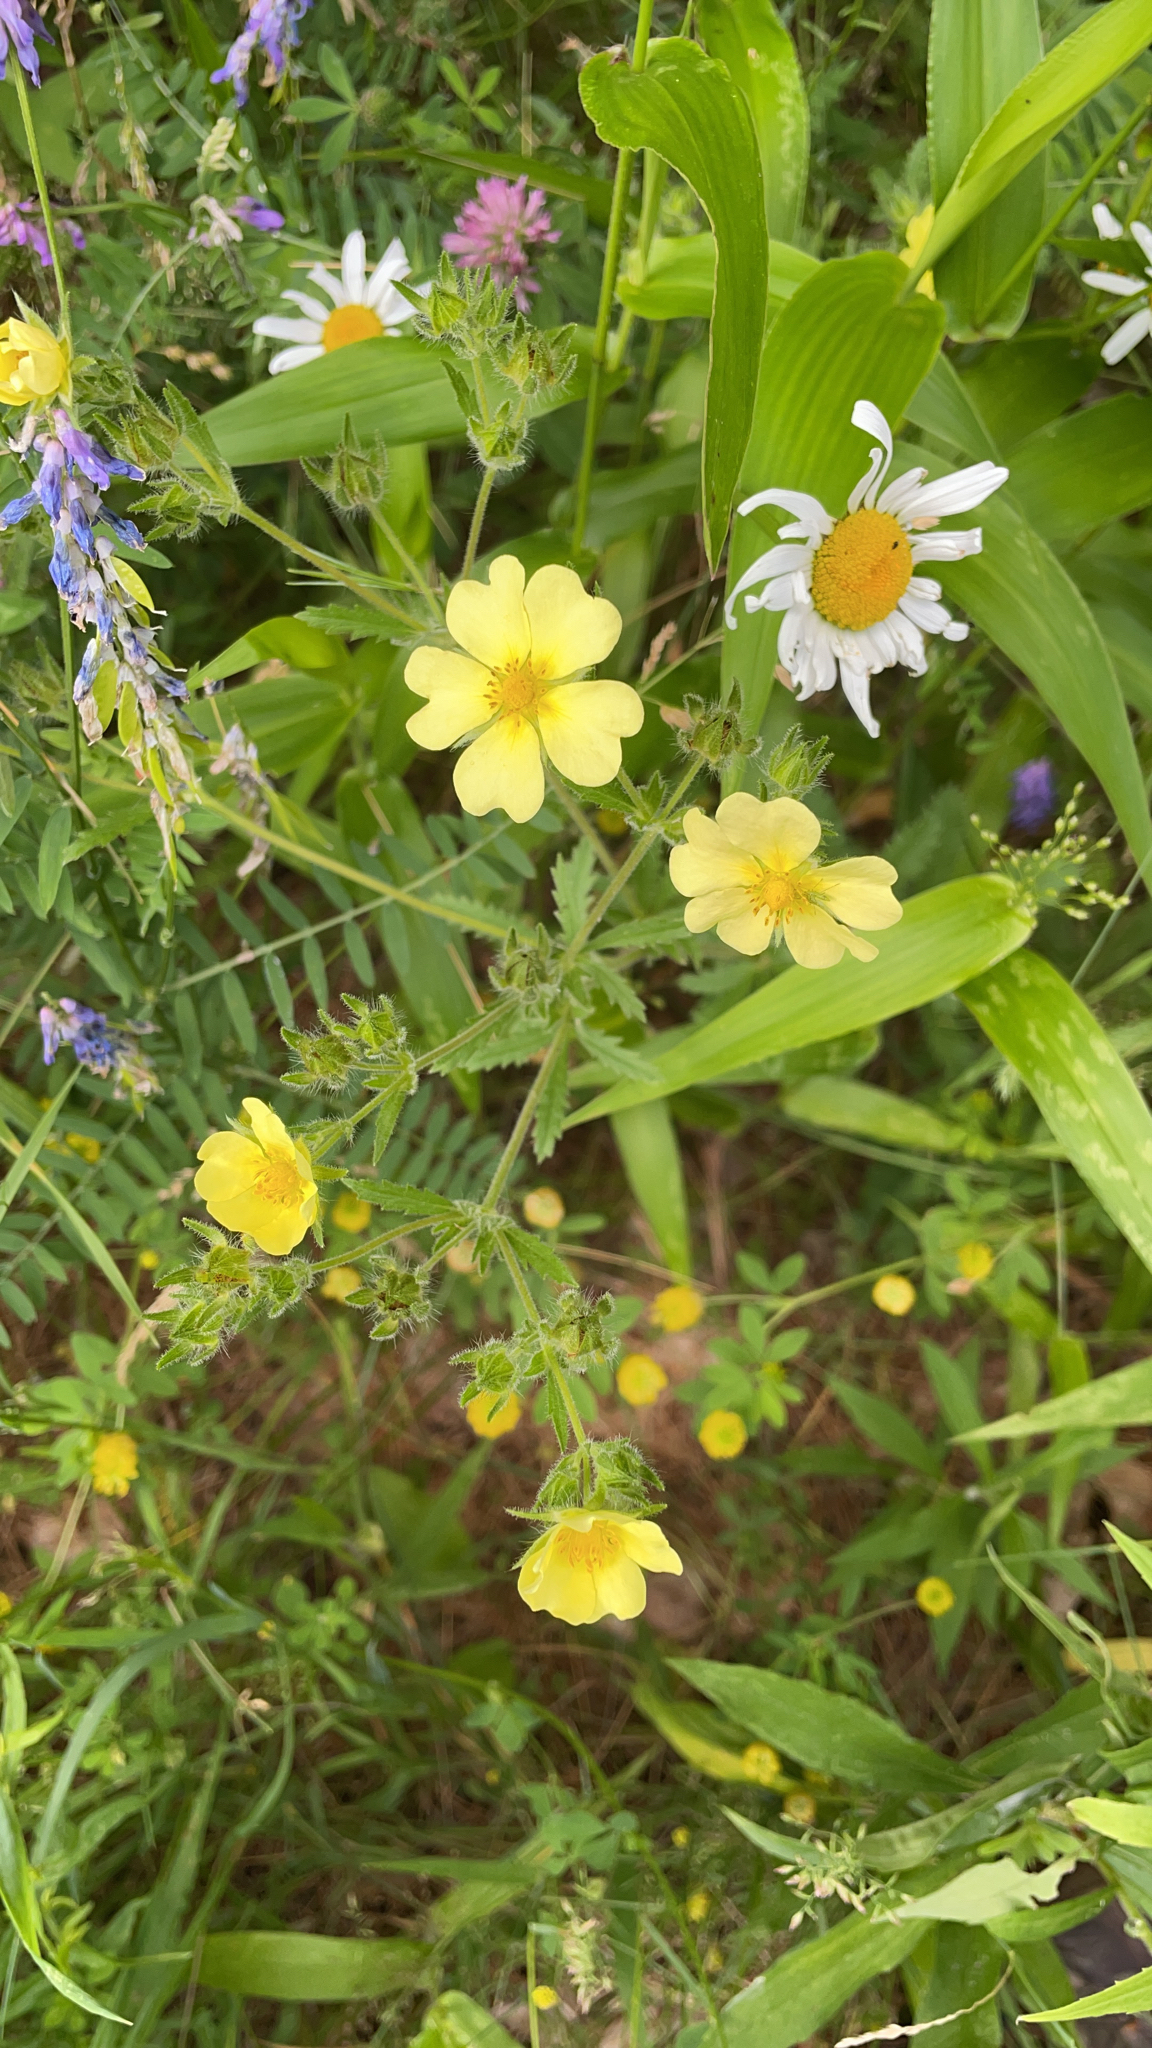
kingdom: Plantae
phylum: Tracheophyta
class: Magnoliopsida
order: Rosales
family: Rosaceae
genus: Potentilla
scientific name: Potentilla recta
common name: Sulphur cinquefoil
